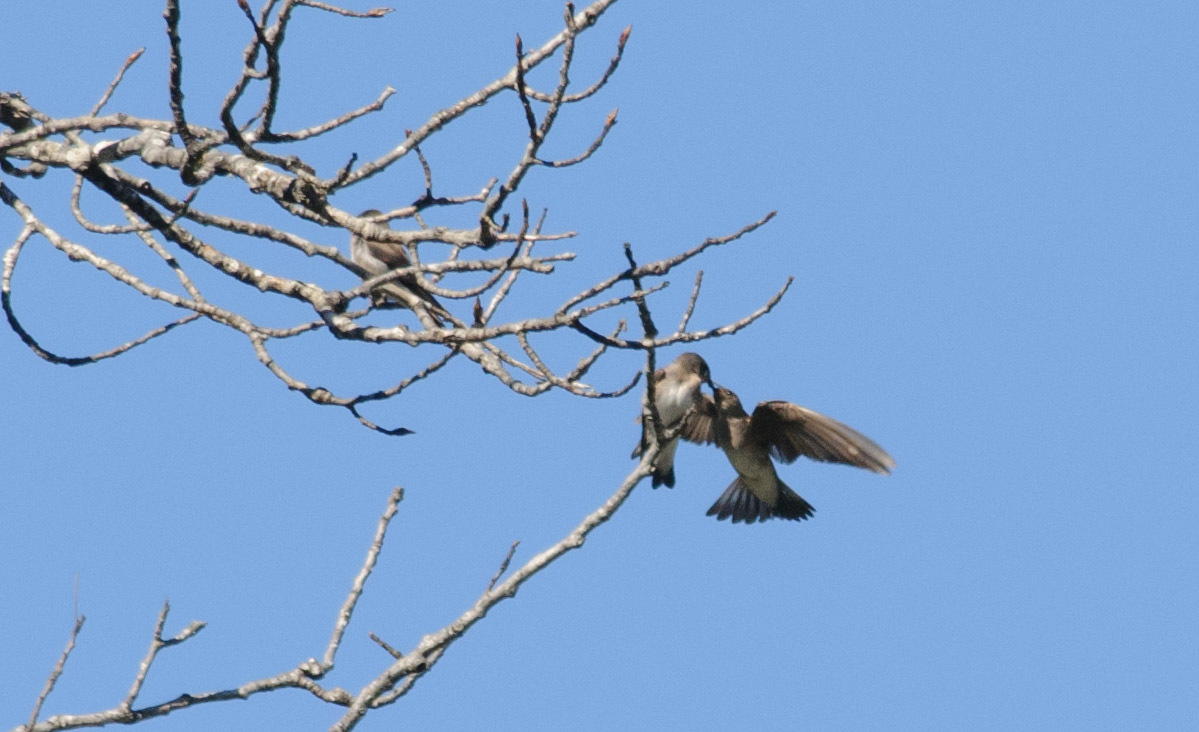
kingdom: Animalia
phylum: Chordata
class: Aves
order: Passeriformes
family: Hirundinidae
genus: Stelgidopteryx
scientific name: Stelgidopteryx serripennis
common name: Northern rough-winged swallow
